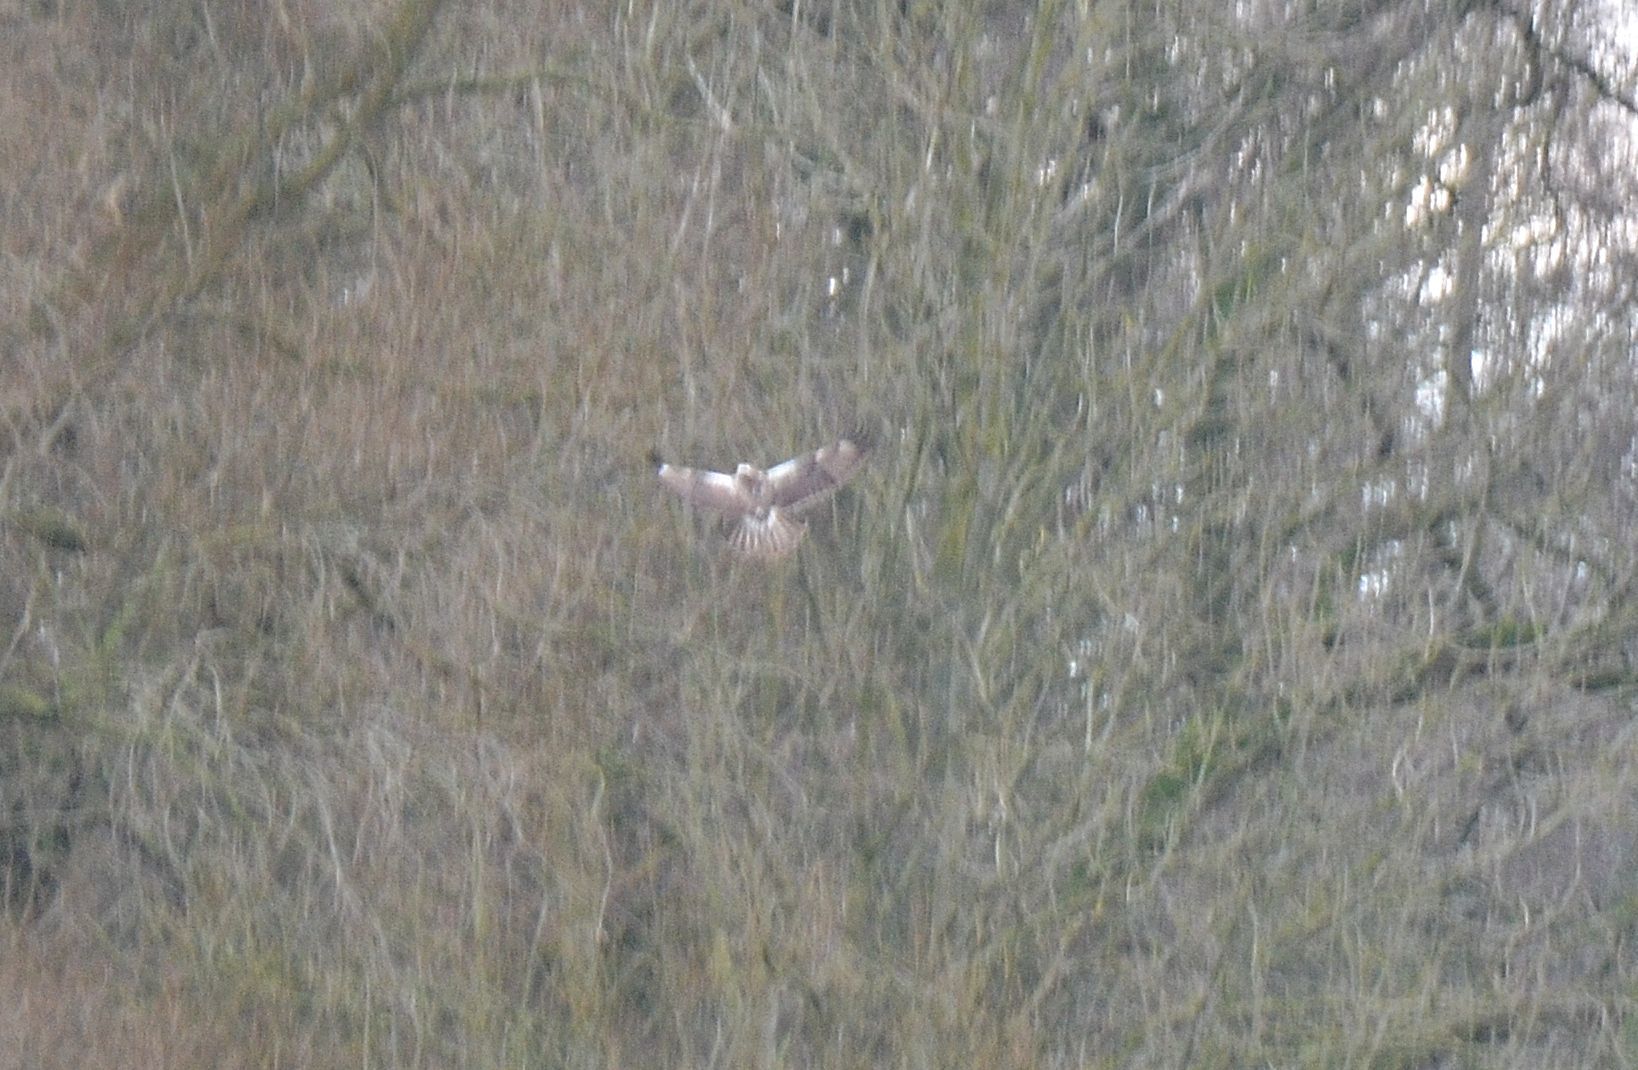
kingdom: Animalia
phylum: Chordata
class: Aves
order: Accipitriformes
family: Accipitridae
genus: Buteo
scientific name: Buteo buteo
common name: Common buzzard
